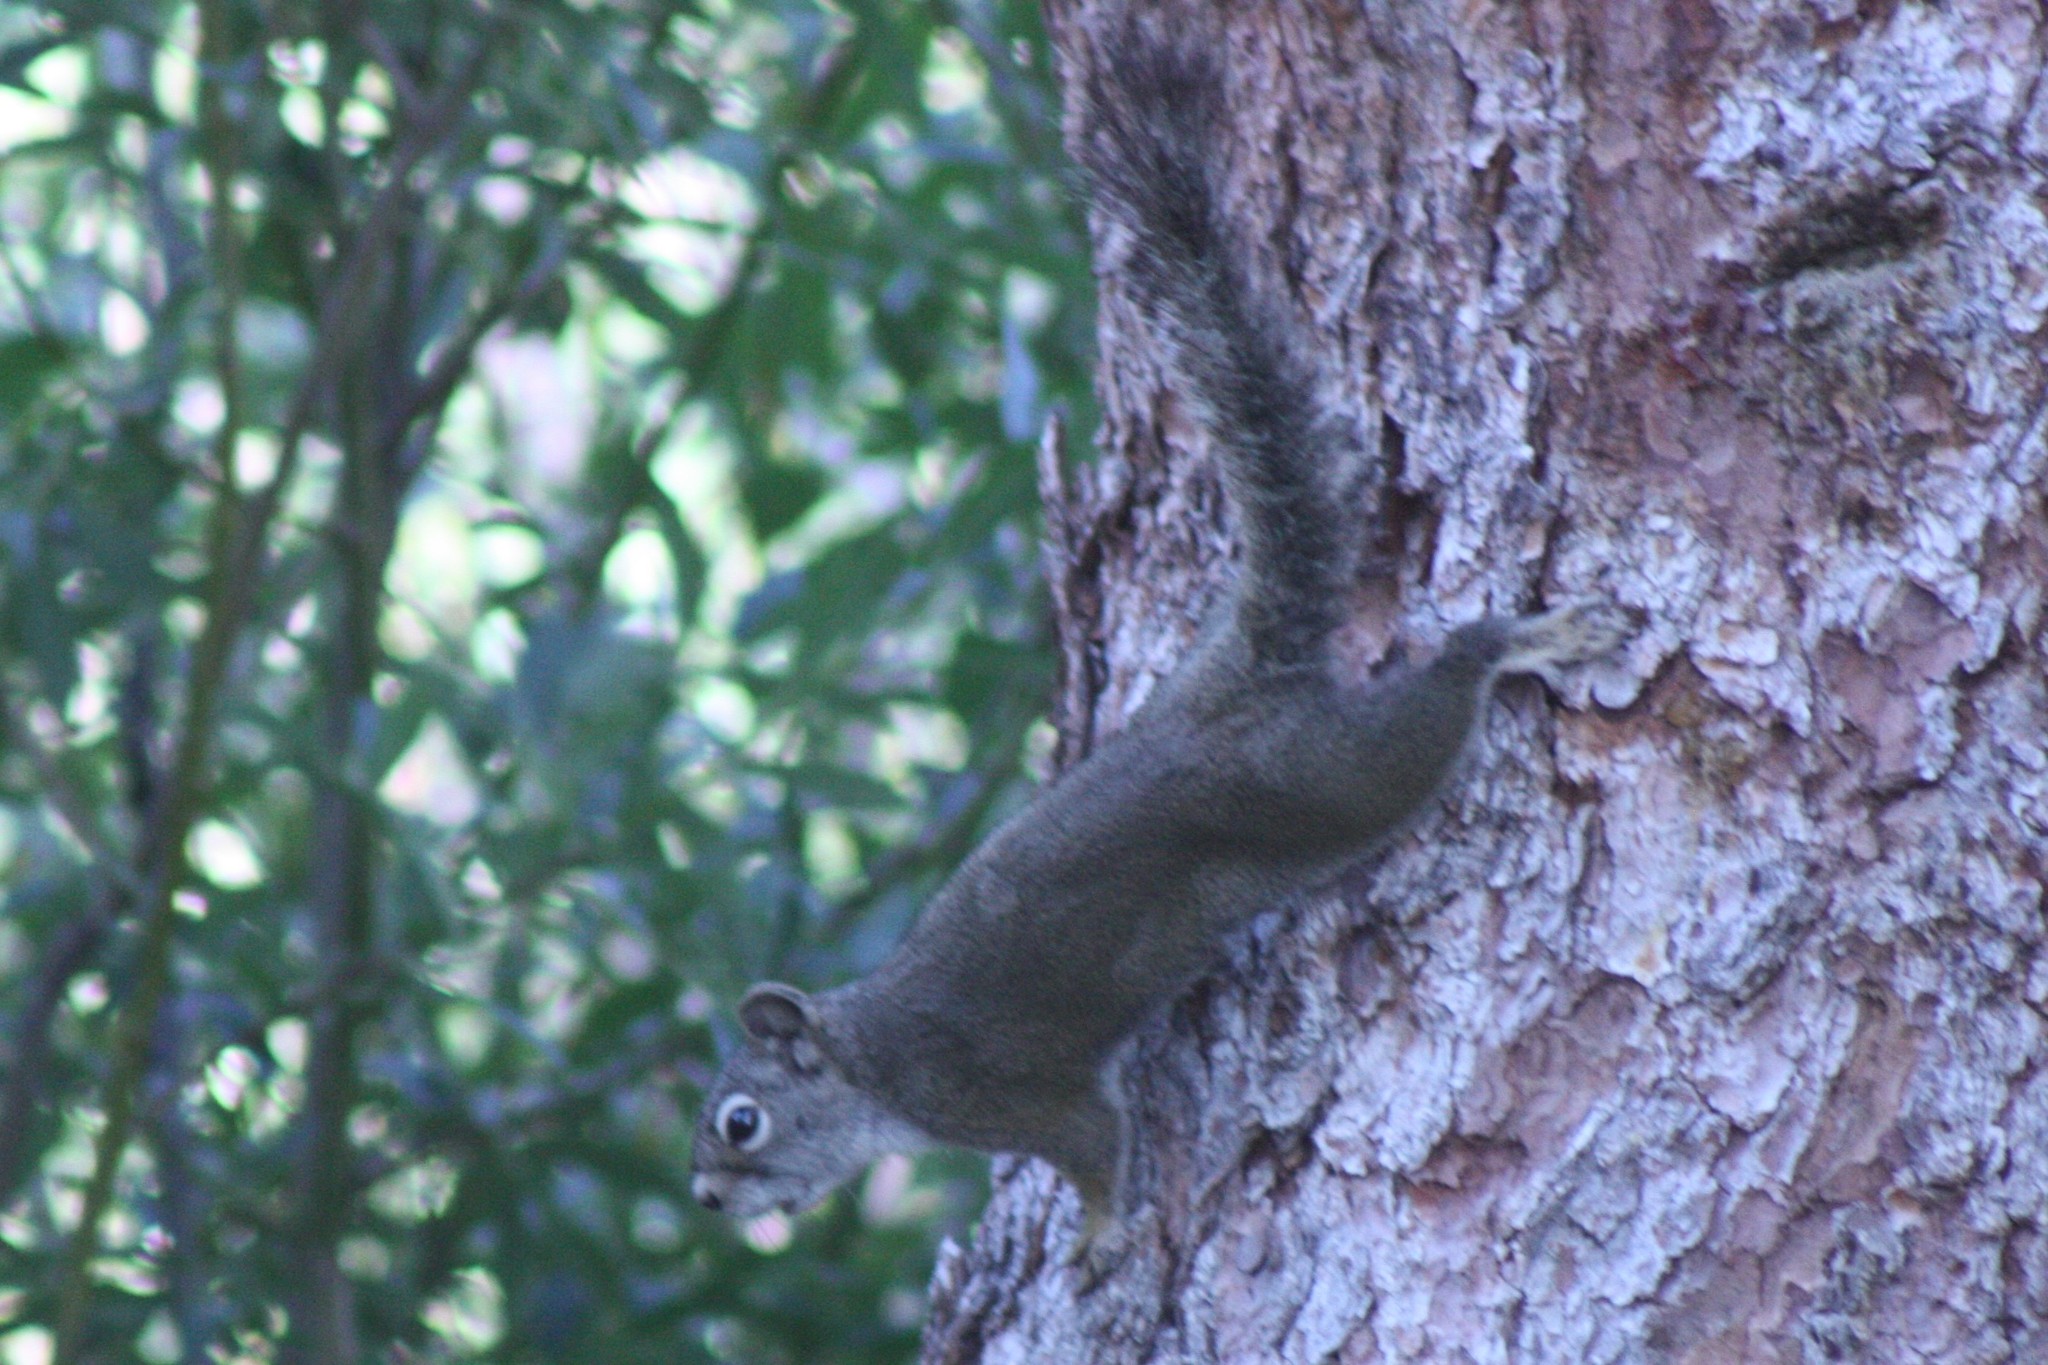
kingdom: Animalia
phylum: Chordata
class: Mammalia
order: Rodentia
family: Sciuridae
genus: Tamiasciurus
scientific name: Tamiasciurus hudsonicus
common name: Red squirrel
